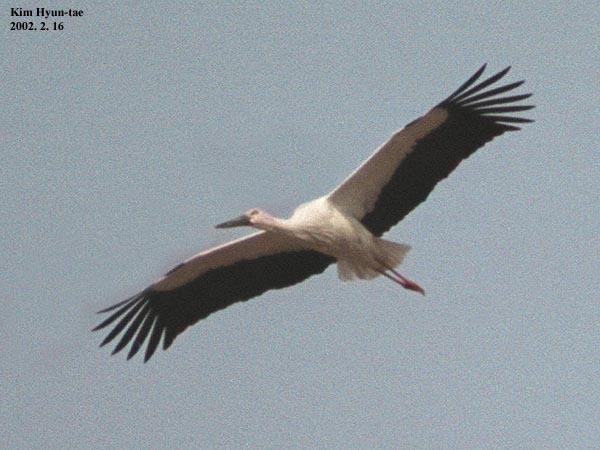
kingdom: Animalia
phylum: Chordata
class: Aves
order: Ciconiiformes
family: Ciconiidae
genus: Ciconia
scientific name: Ciconia boyciana
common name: Oriental stork
